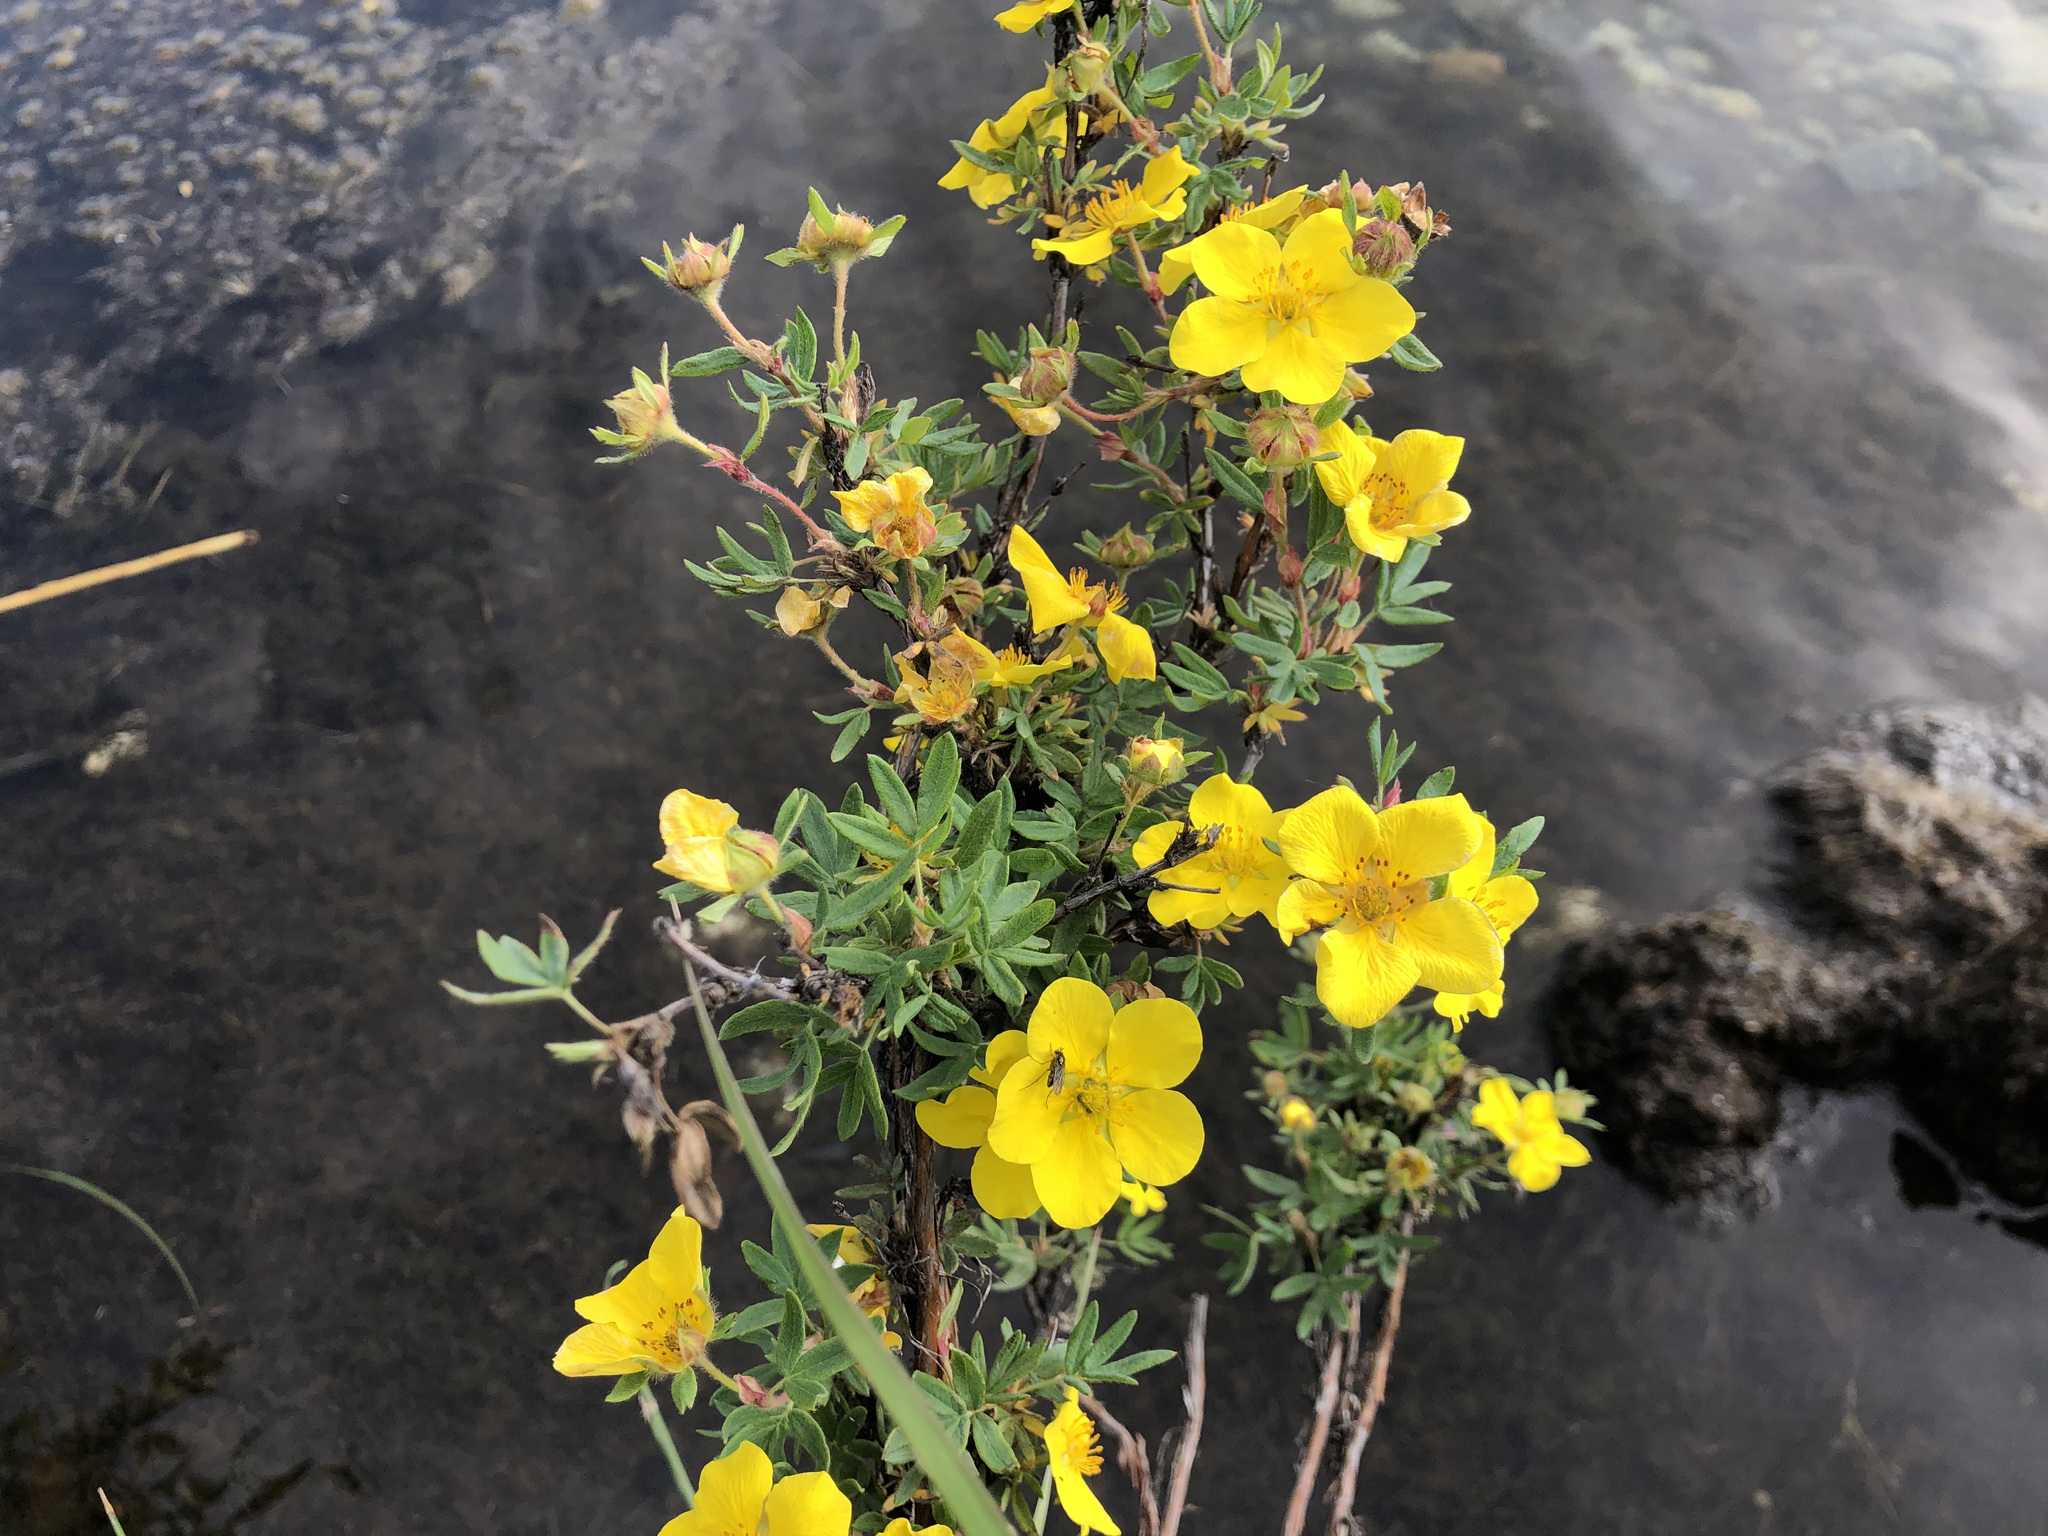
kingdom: Plantae
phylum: Tracheophyta
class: Magnoliopsida
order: Rosales
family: Rosaceae
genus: Dasiphora
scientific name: Dasiphora fruticosa
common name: Shrubby cinquefoil
